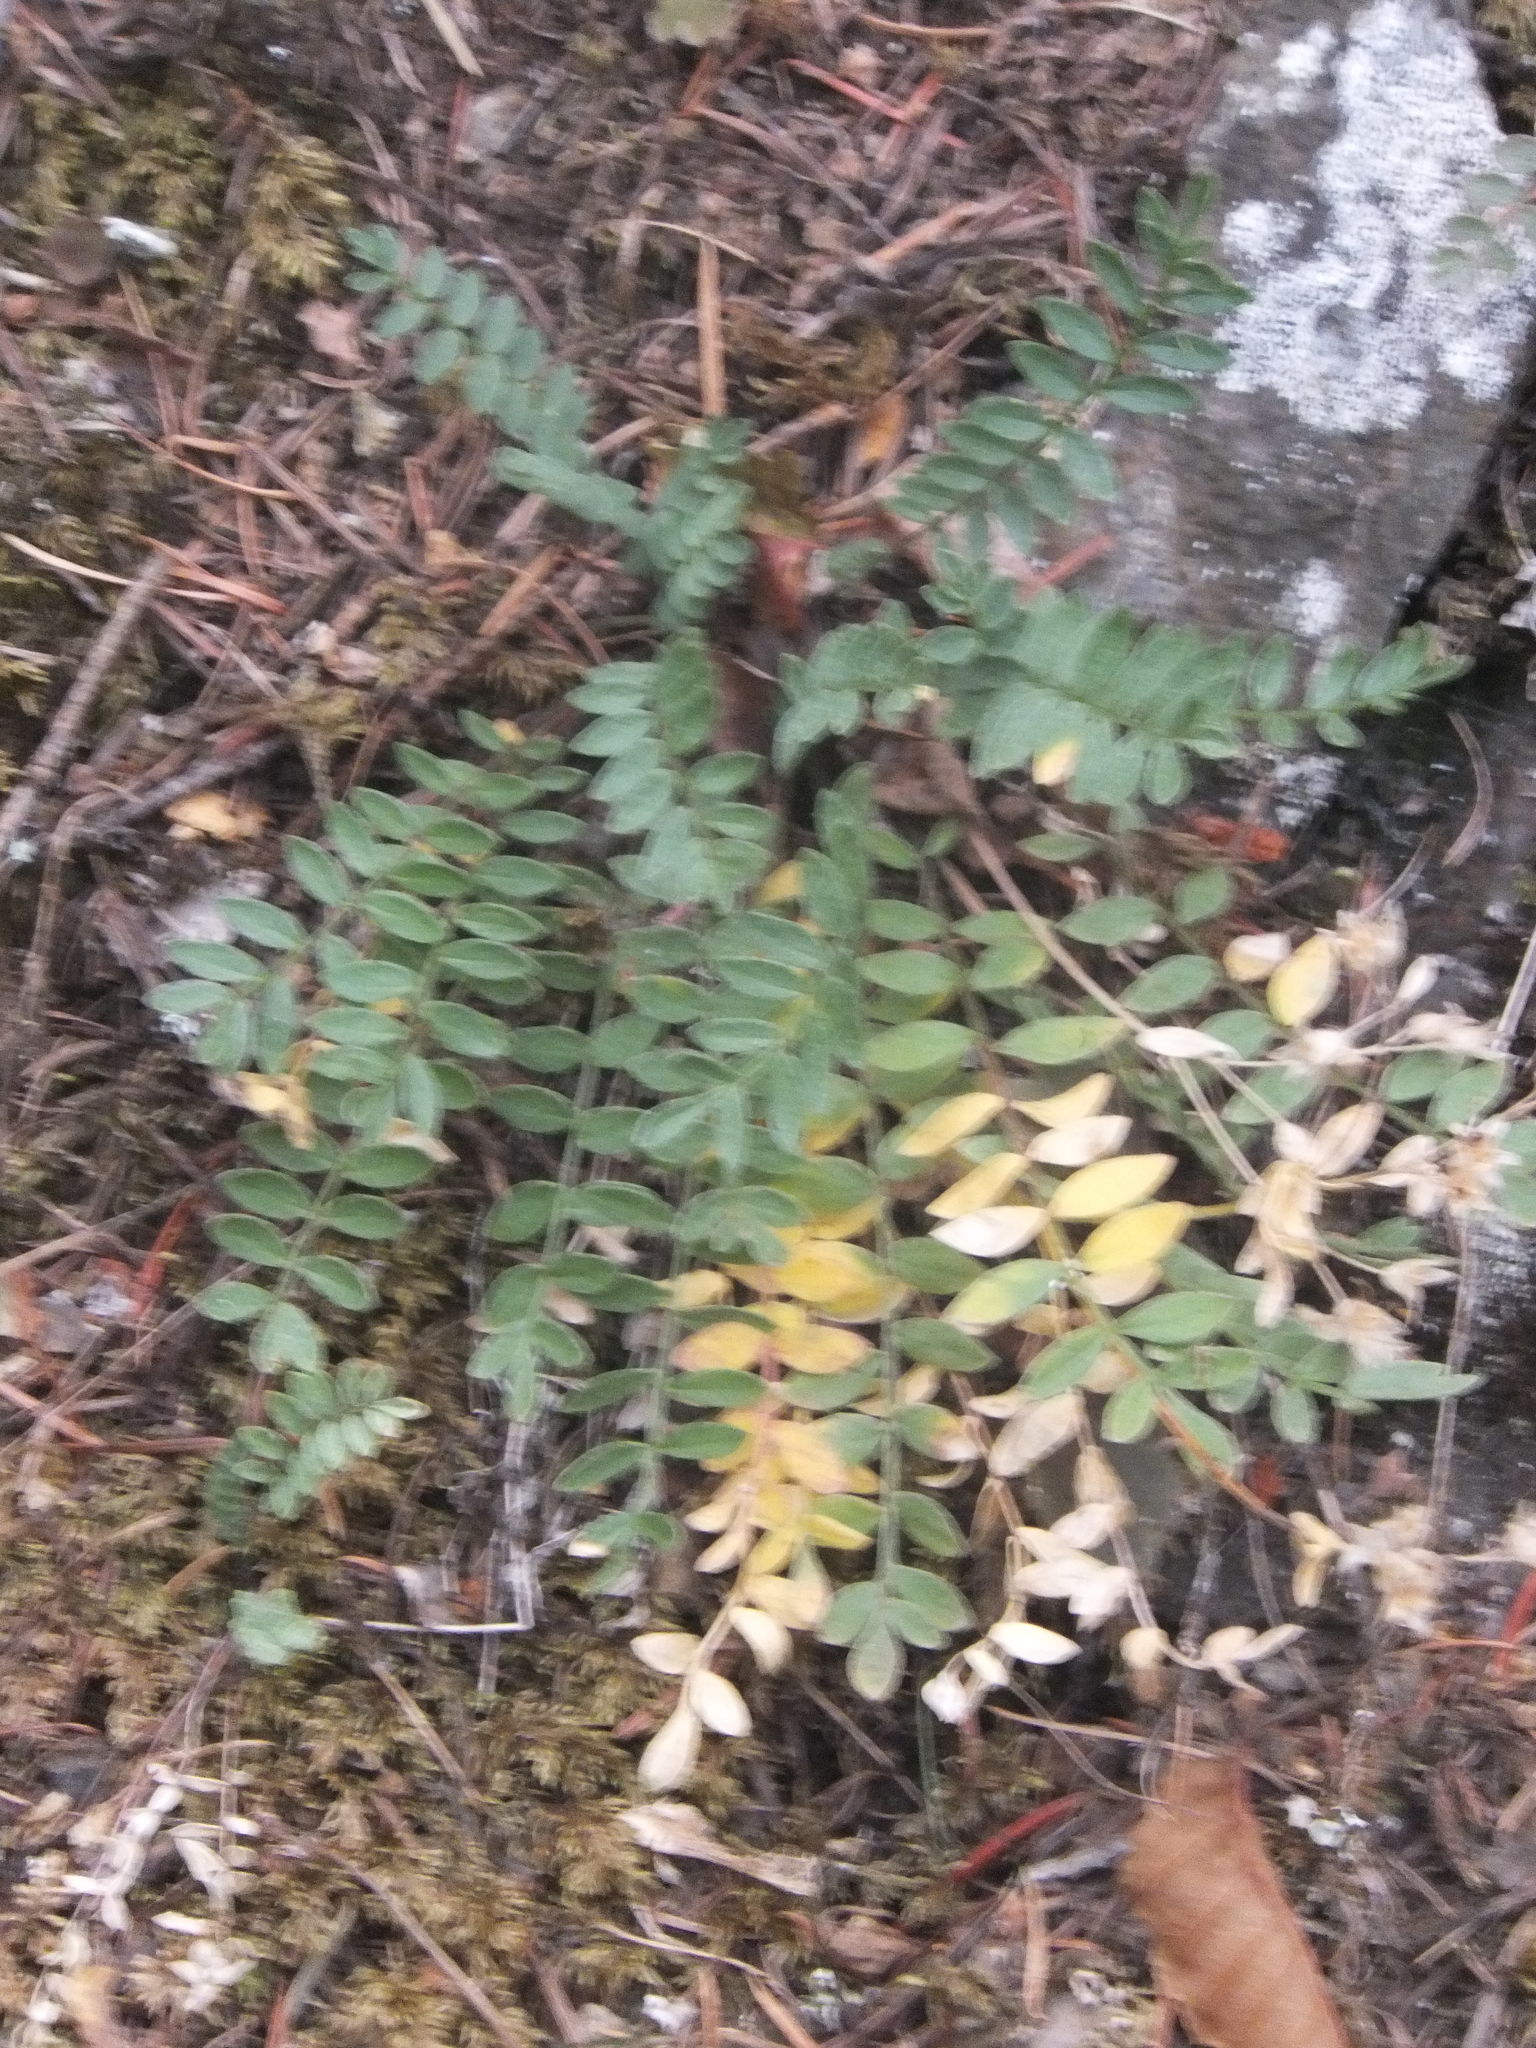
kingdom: Plantae
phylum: Tracheophyta
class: Magnoliopsida
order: Ericales
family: Polemoniaceae
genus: Polemonium
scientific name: Polemonium pulcherrimum
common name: Short jacob's-ladder
